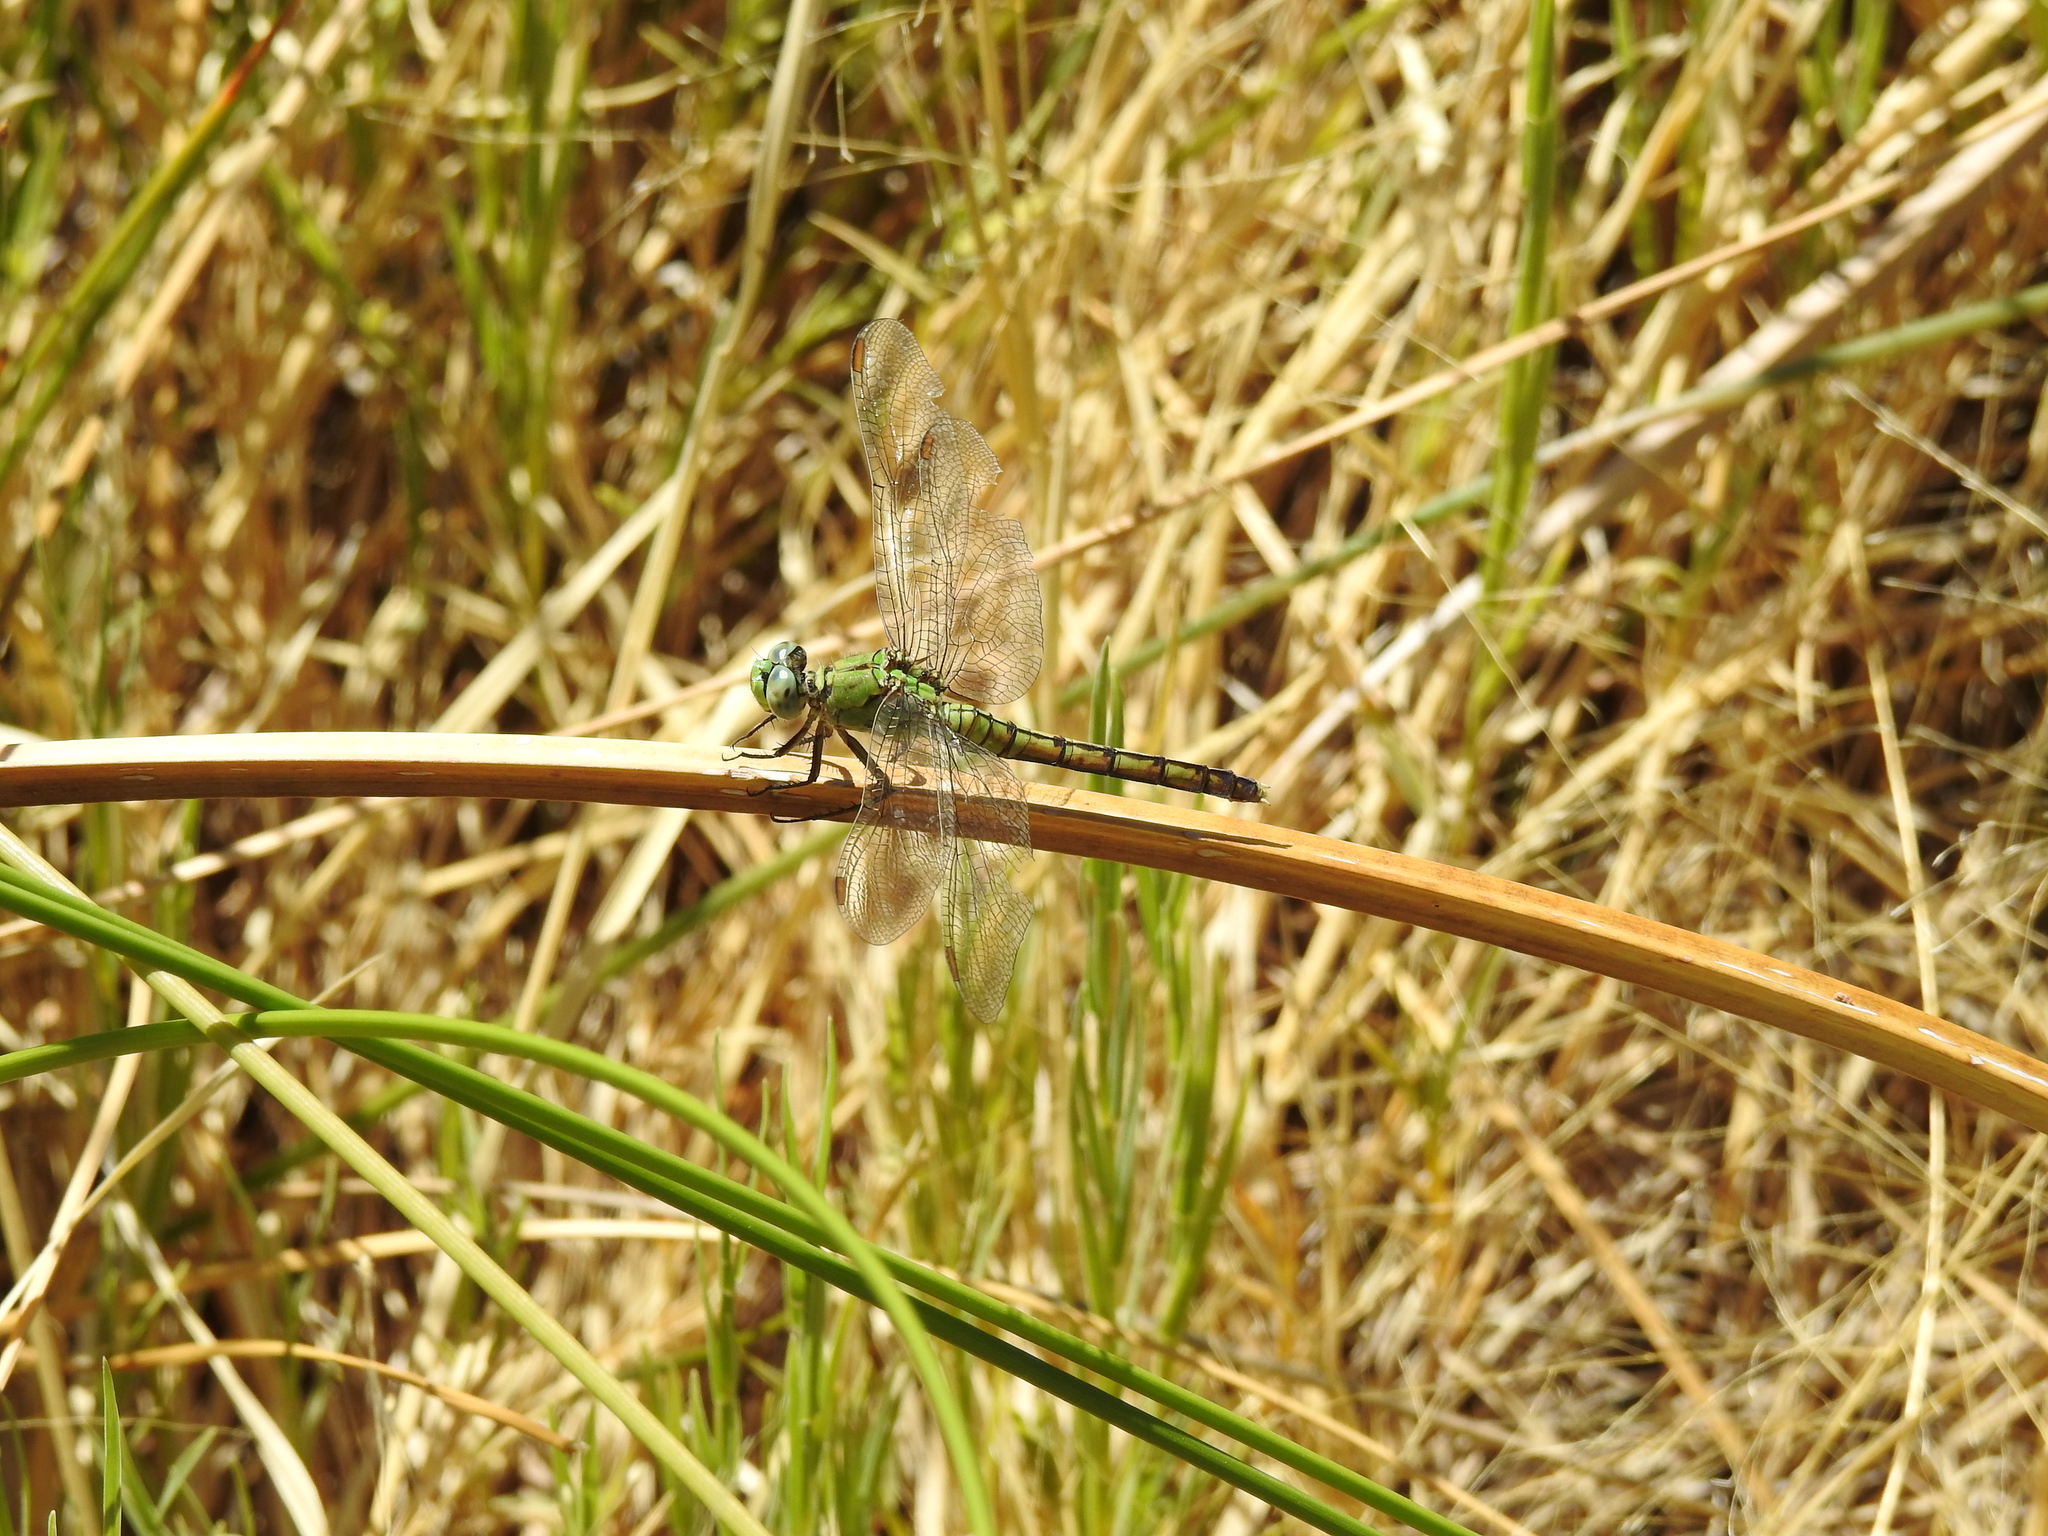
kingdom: Animalia
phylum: Arthropoda
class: Insecta
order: Odonata
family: Libellulidae
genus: Erythemis
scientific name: Erythemis collocata
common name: Western pondhawk
